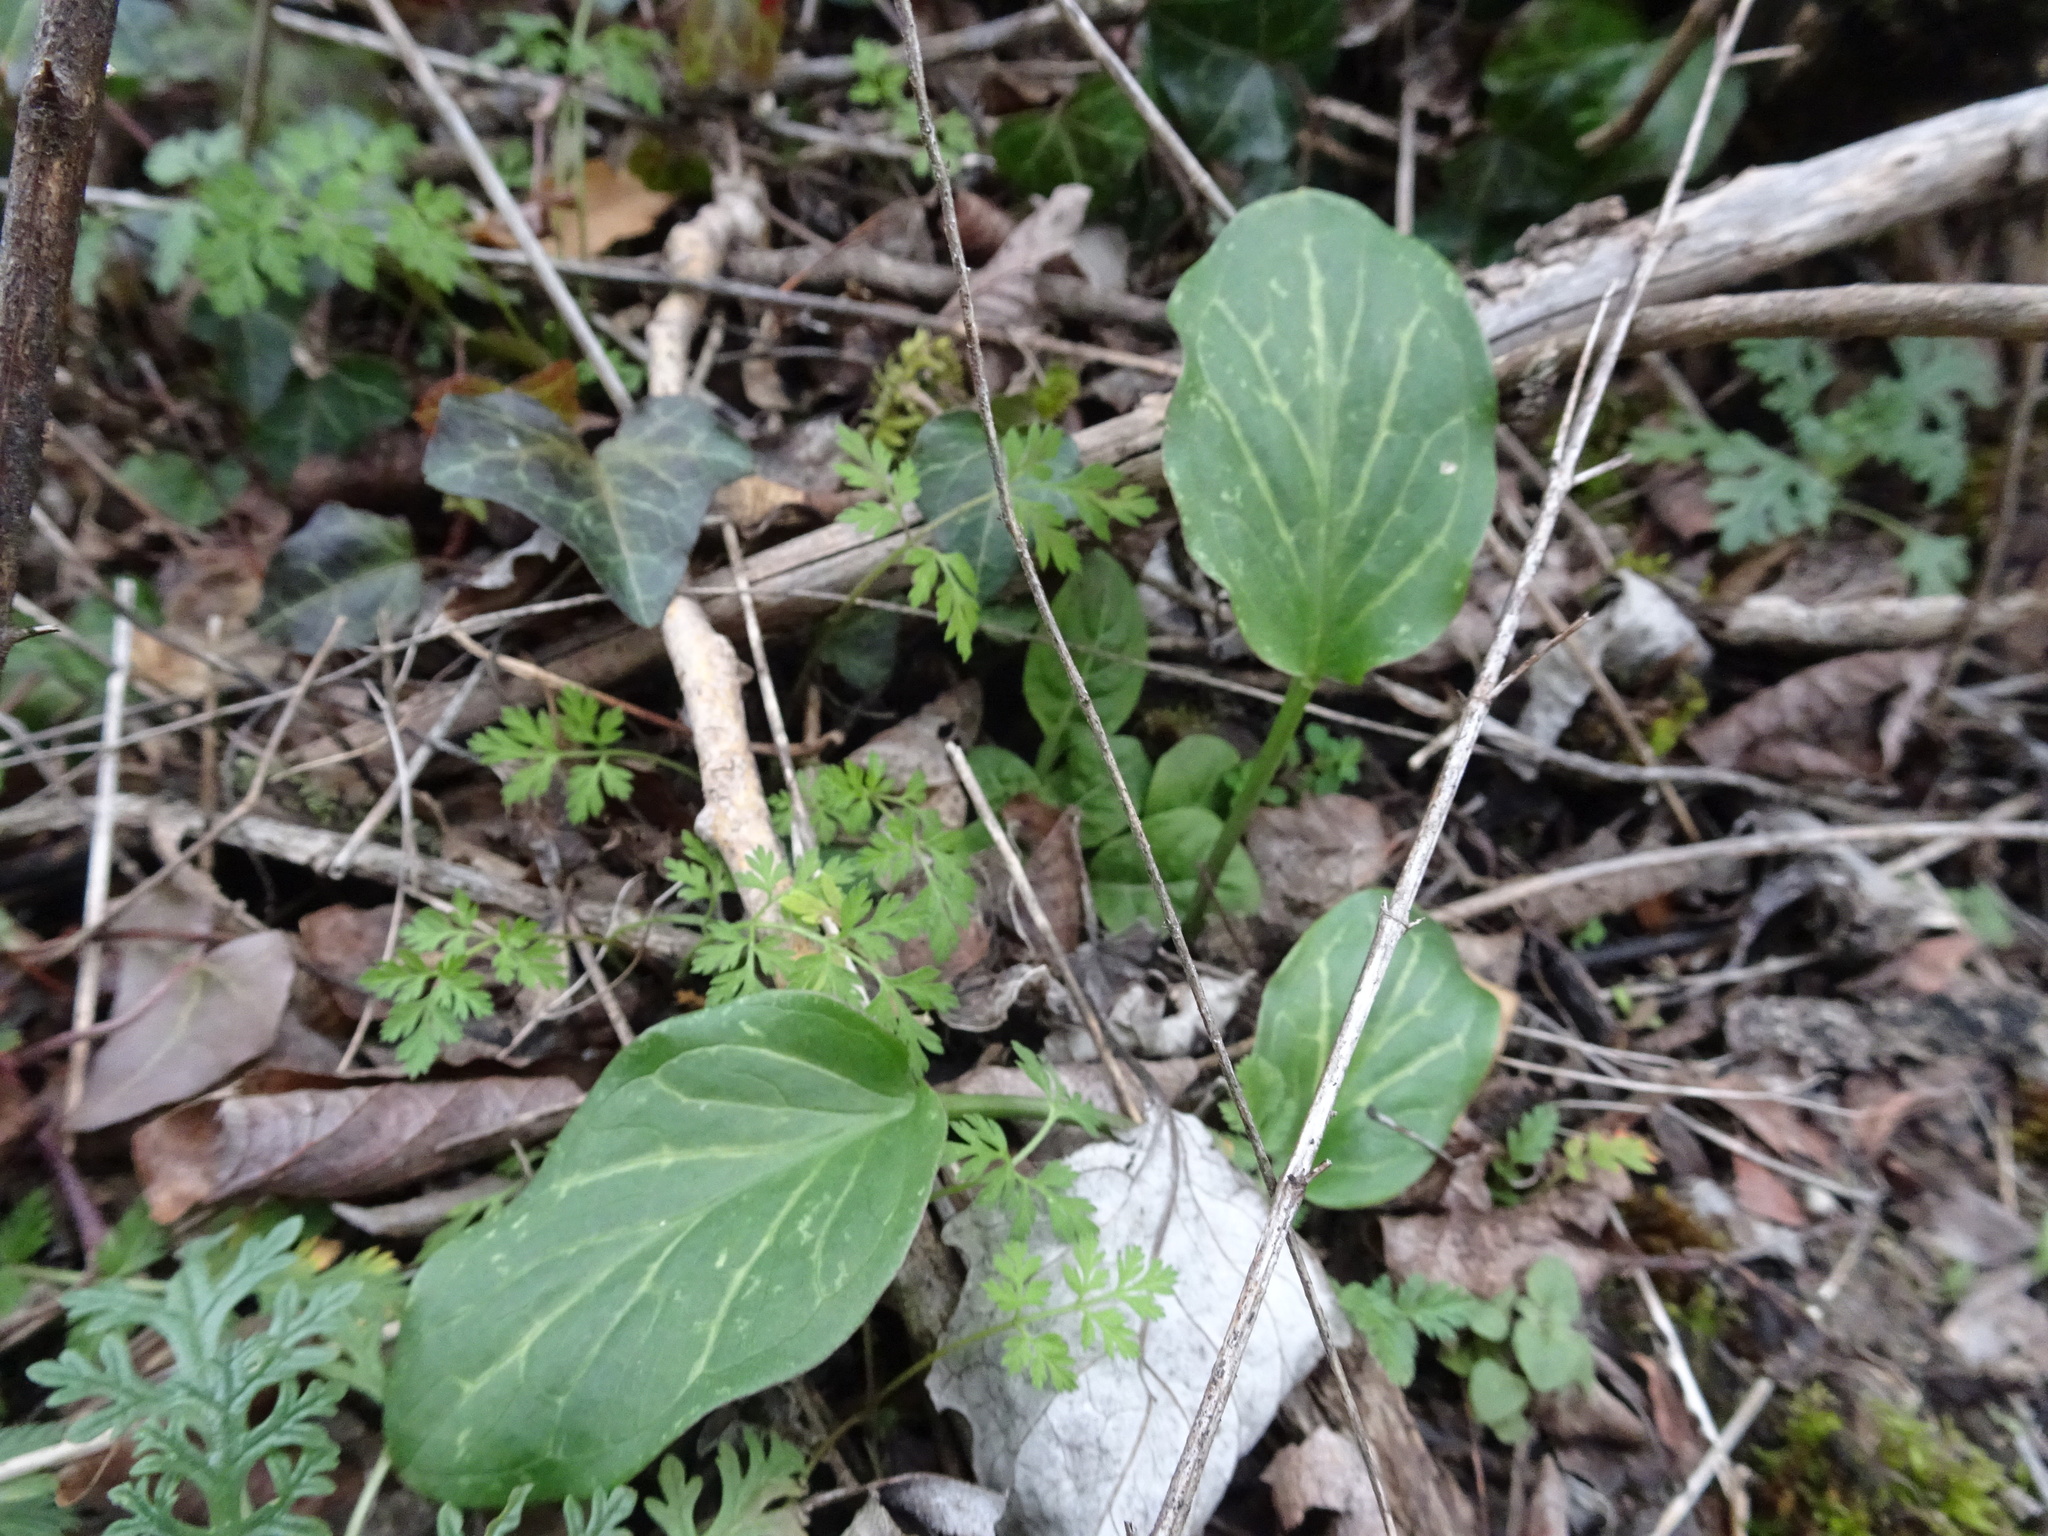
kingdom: Plantae
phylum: Tracheophyta
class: Liliopsida
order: Alismatales
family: Araceae
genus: Arum
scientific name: Arum italicum
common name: Italian lords-and-ladies
